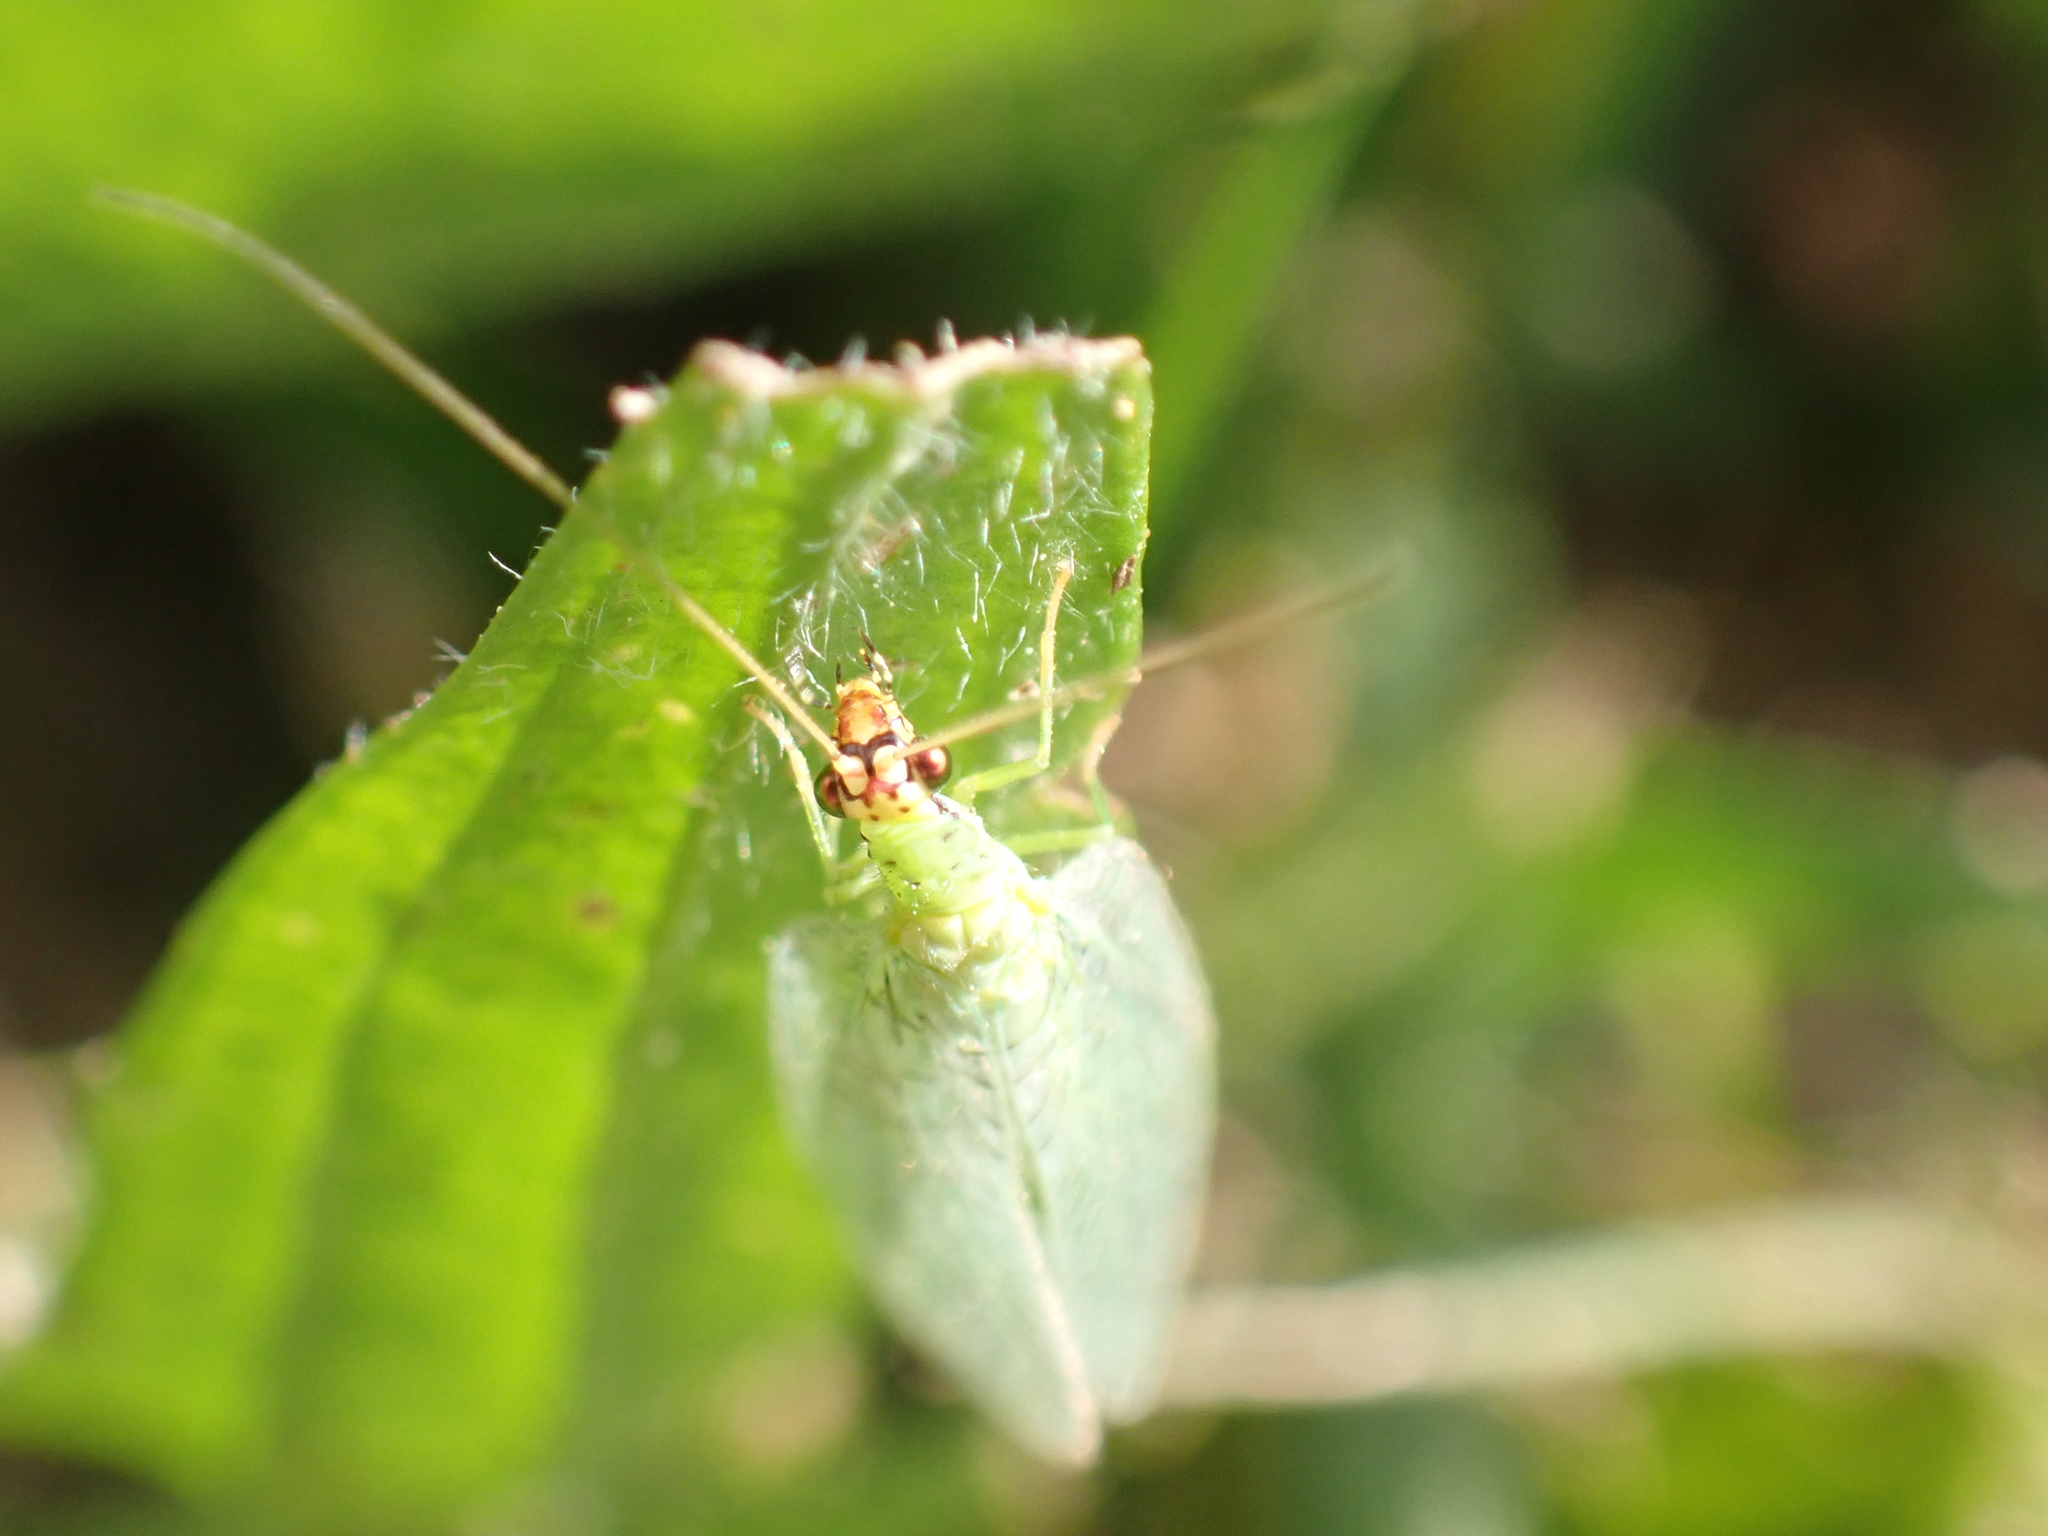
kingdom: Animalia
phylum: Arthropoda
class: Insecta
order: Neuroptera
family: Chrysopidae
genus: Chrysopa
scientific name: Chrysopa oculata
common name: Golden-eyed lacewing
